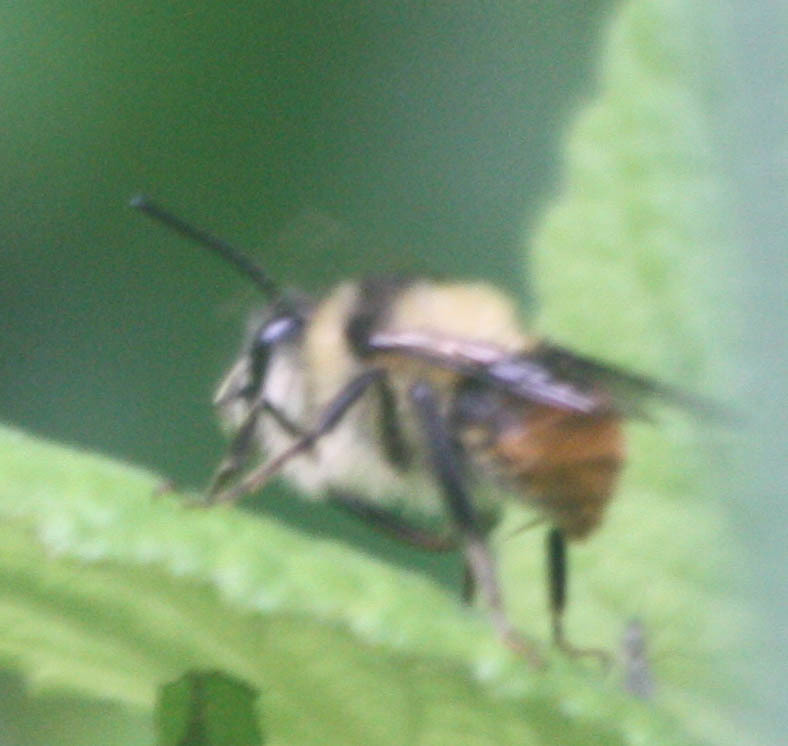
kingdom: Animalia
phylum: Arthropoda
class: Insecta
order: Hymenoptera
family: Apidae
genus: Deltoptila
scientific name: Deltoptila elefas
